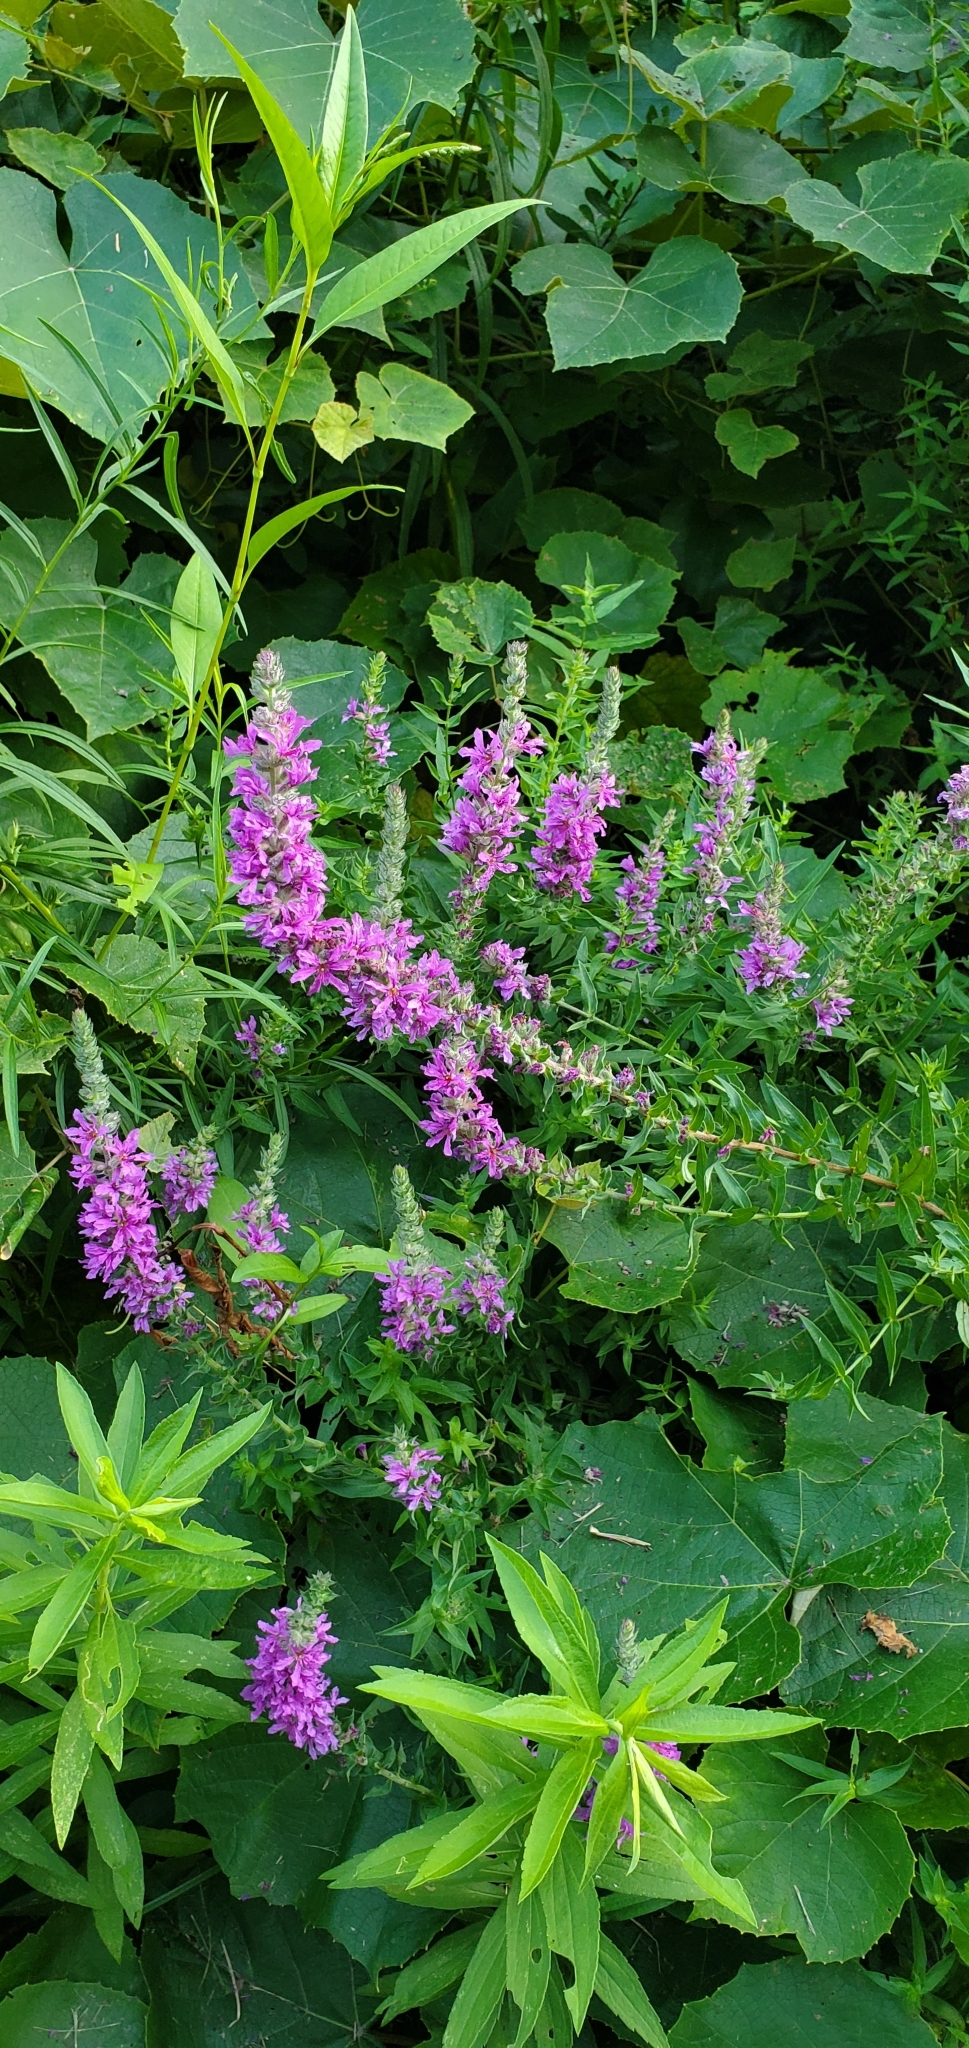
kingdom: Plantae
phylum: Tracheophyta
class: Magnoliopsida
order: Myrtales
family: Lythraceae
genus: Lythrum
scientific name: Lythrum salicaria
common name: Purple loosestrife
